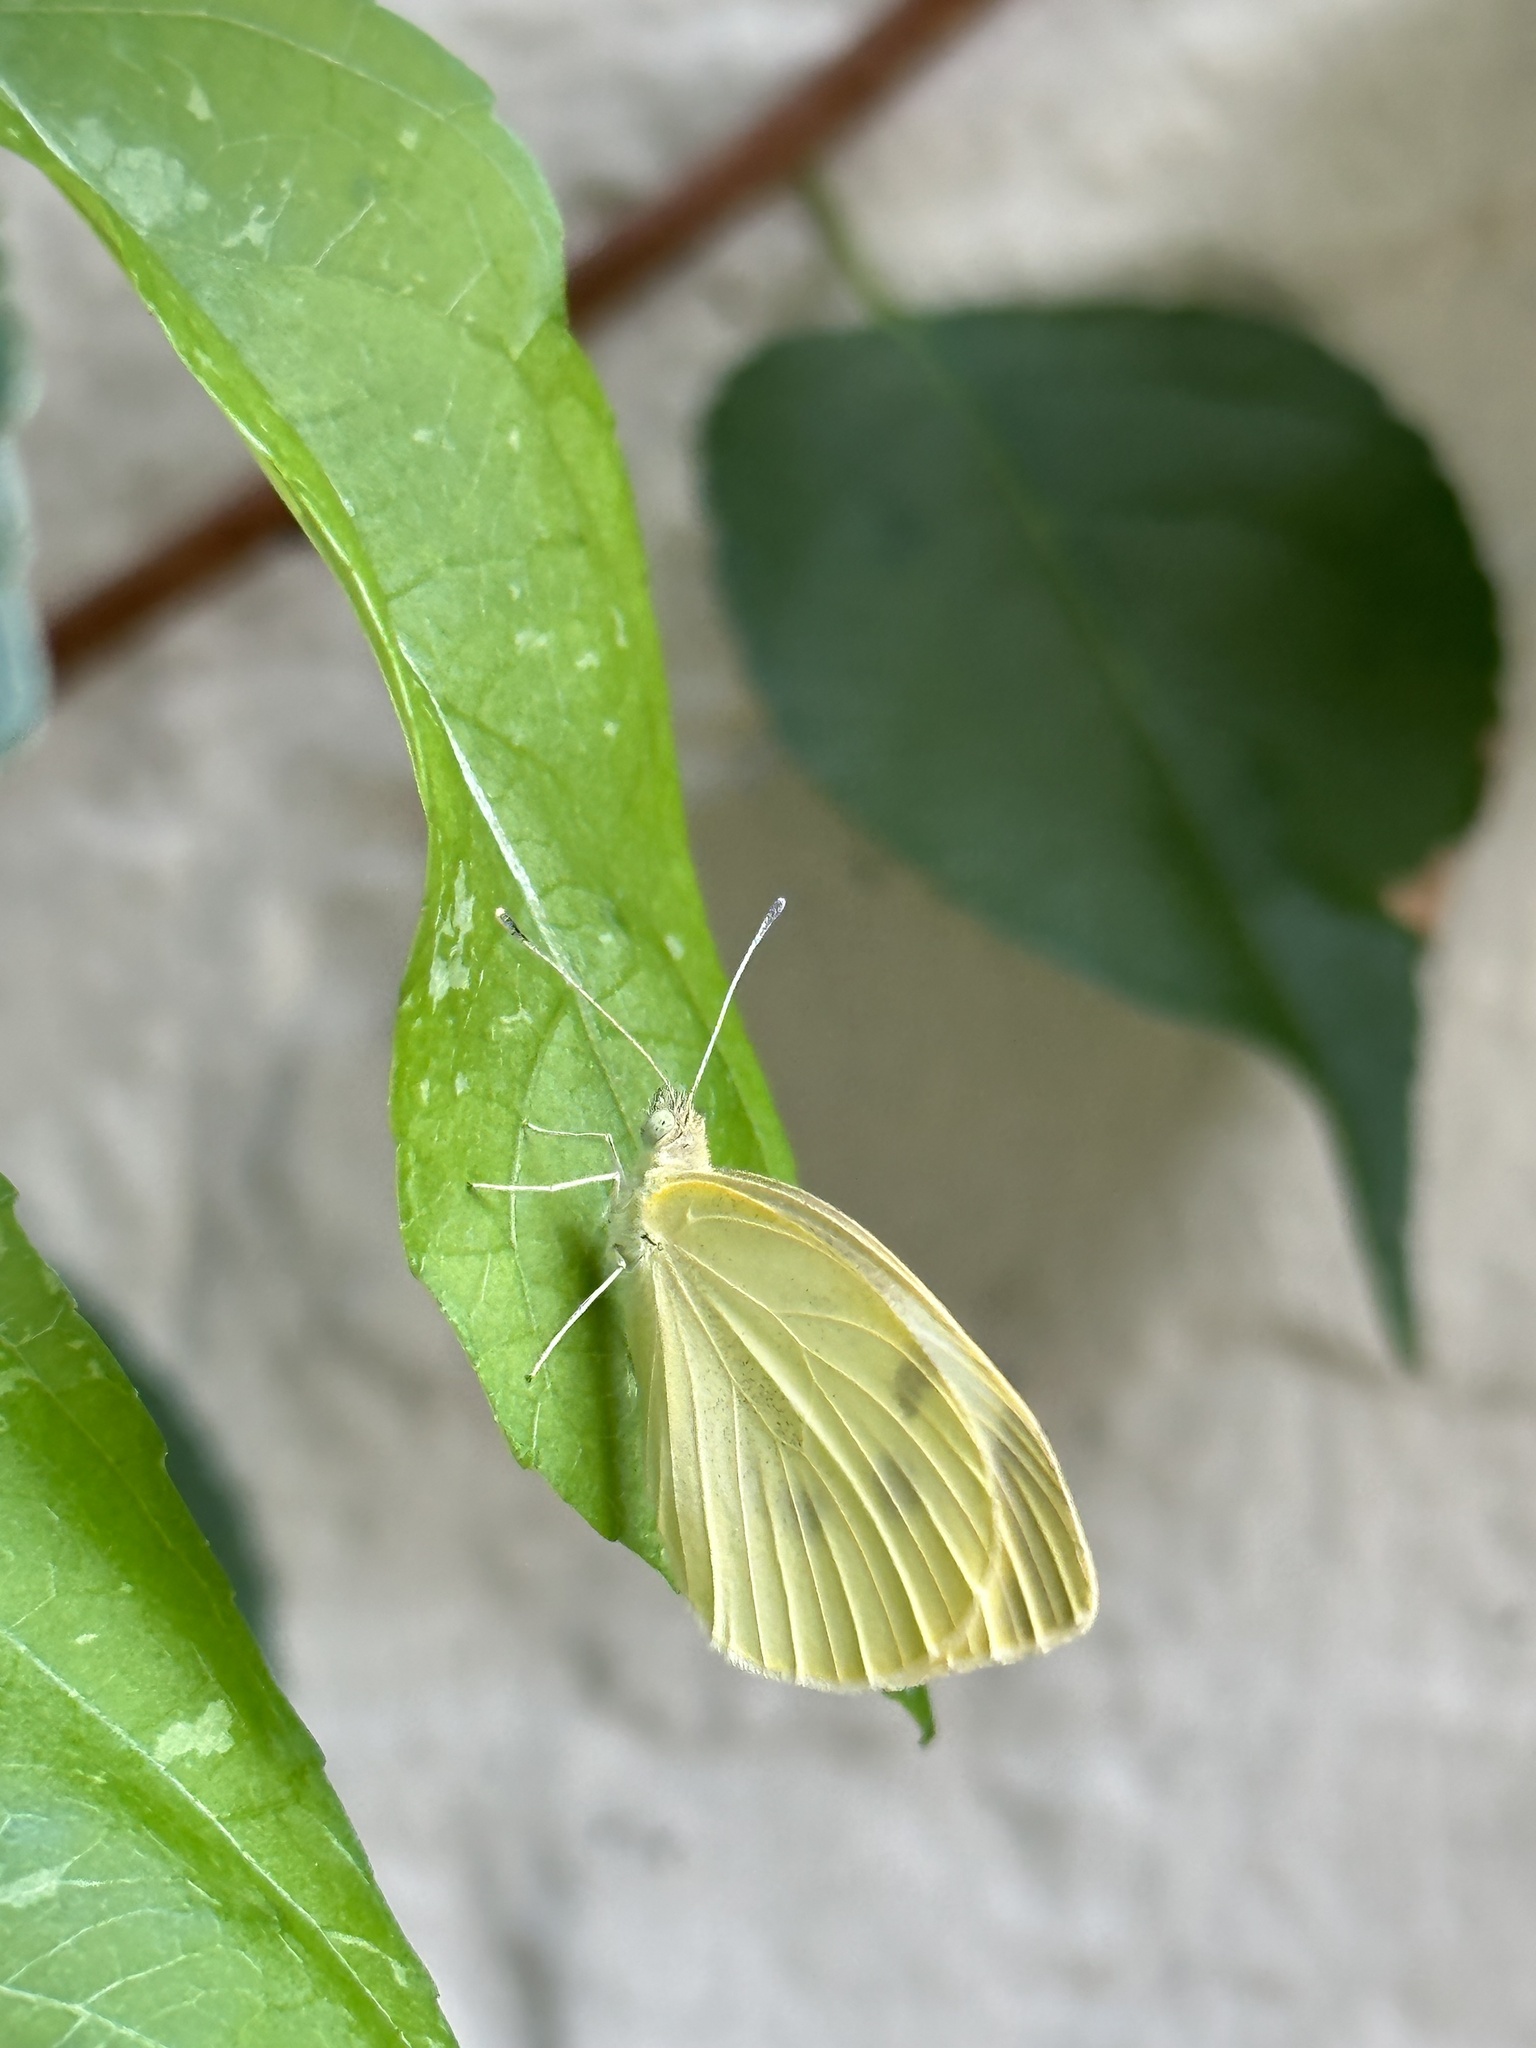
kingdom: Animalia
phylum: Arthropoda
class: Insecta
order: Lepidoptera
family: Pieridae
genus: Pieris
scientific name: Pieris rapae
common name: Small white
